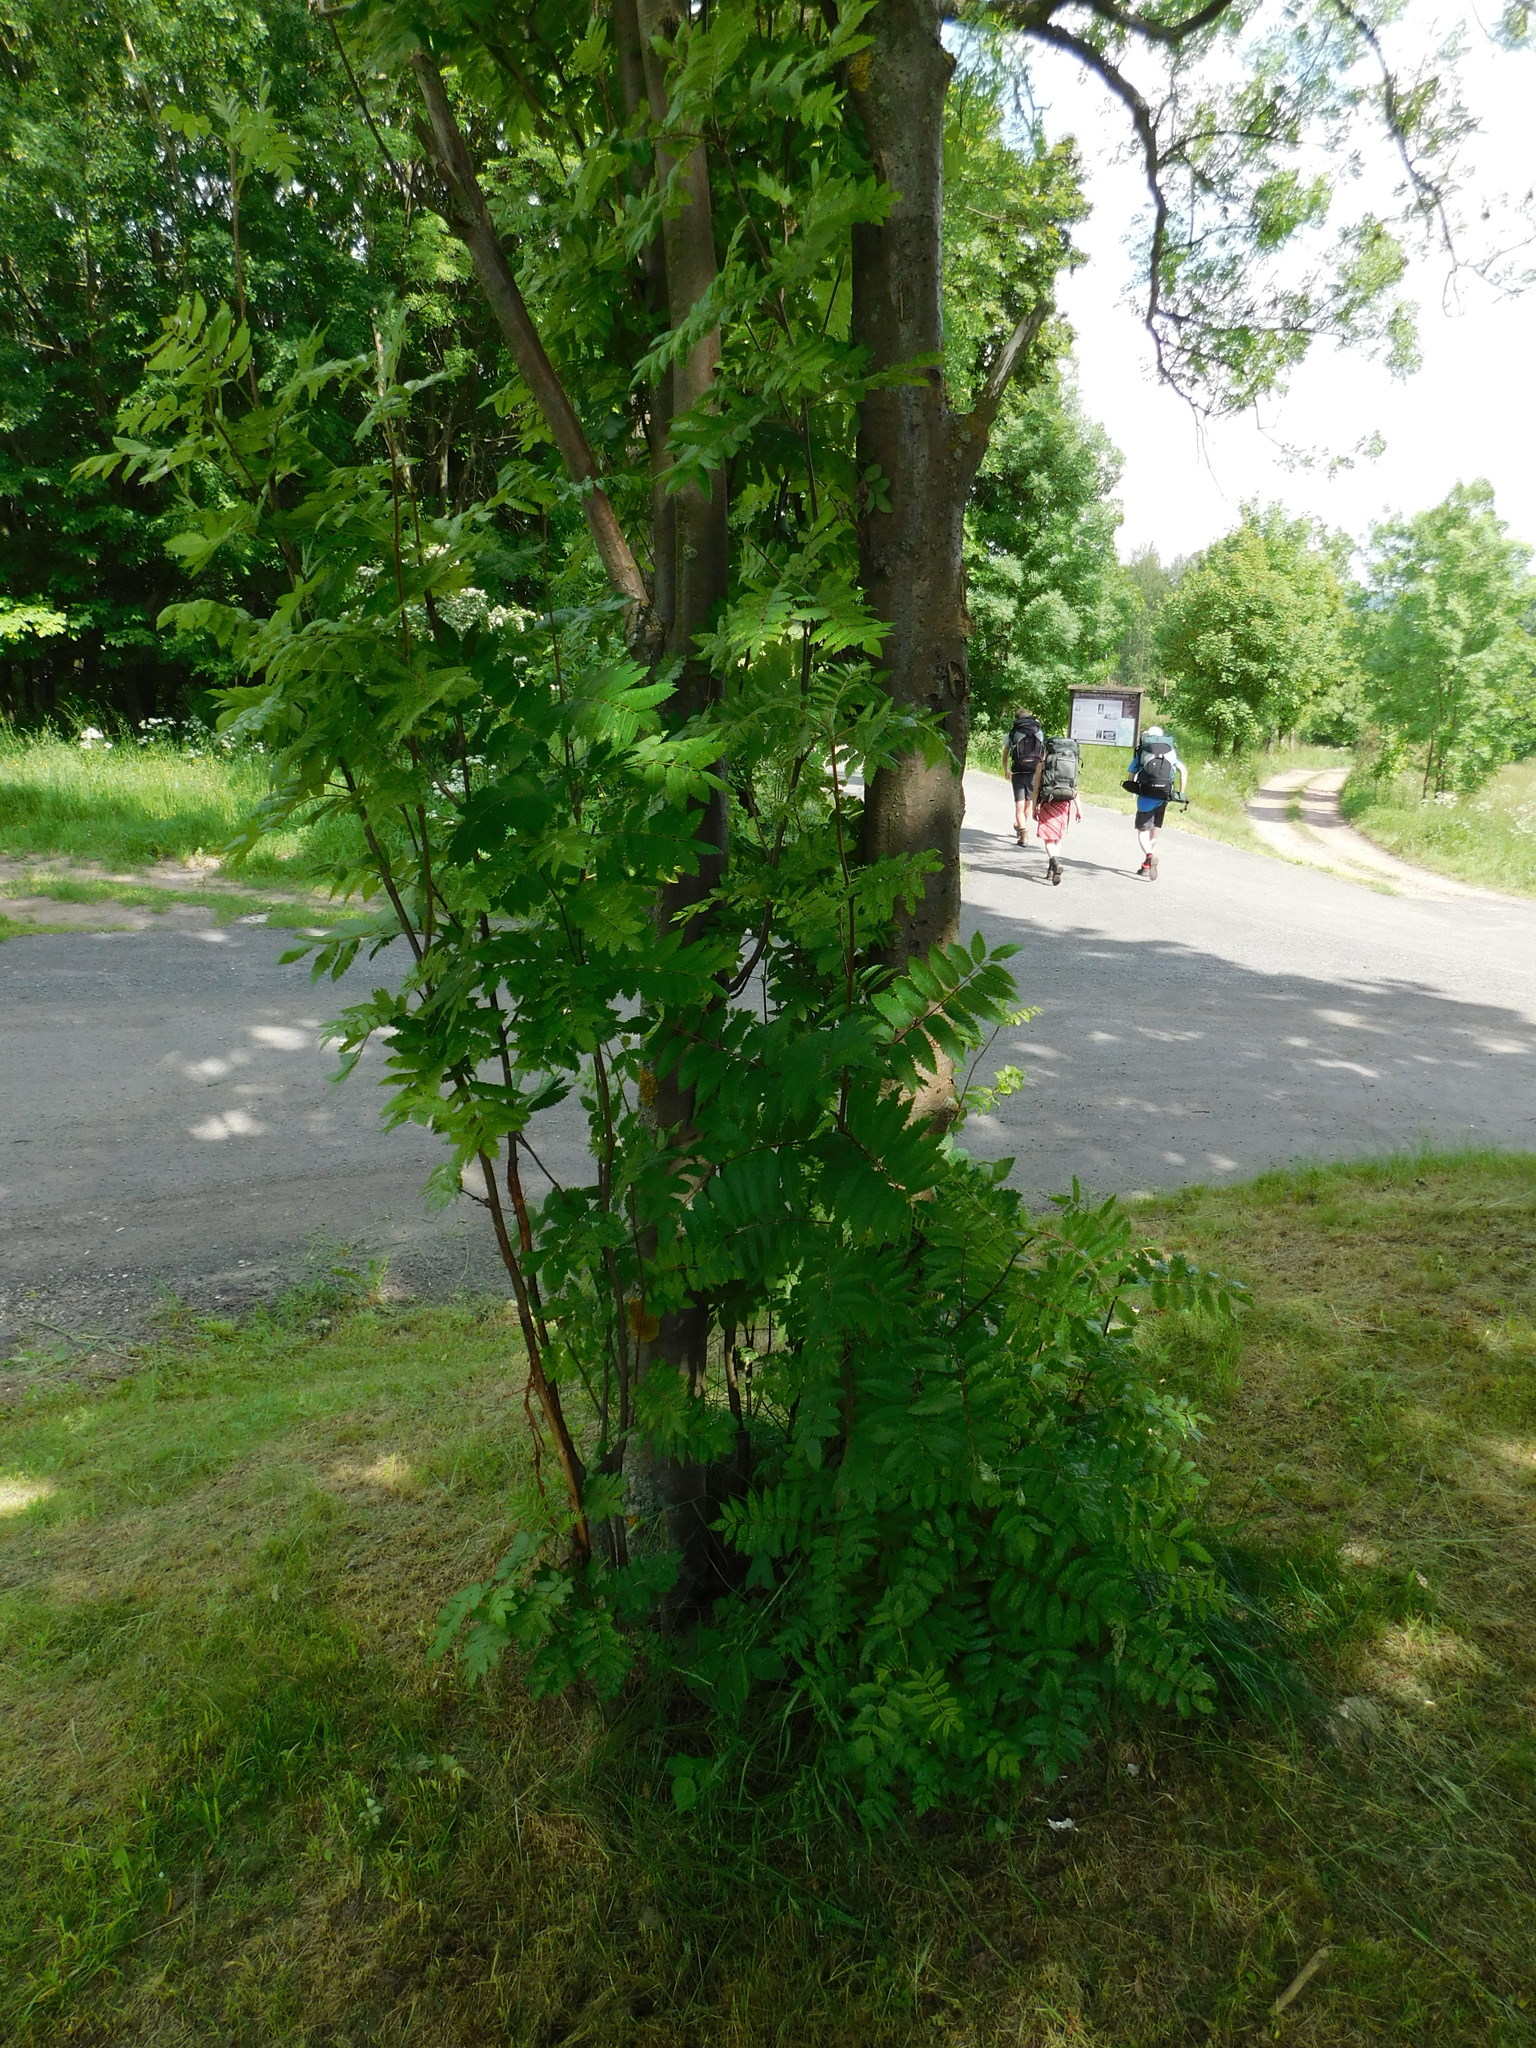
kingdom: Plantae
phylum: Tracheophyta
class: Magnoliopsida
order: Rosales
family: Rosaceae
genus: Sorbus
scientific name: Sorbus aucuparia
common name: Rowan
